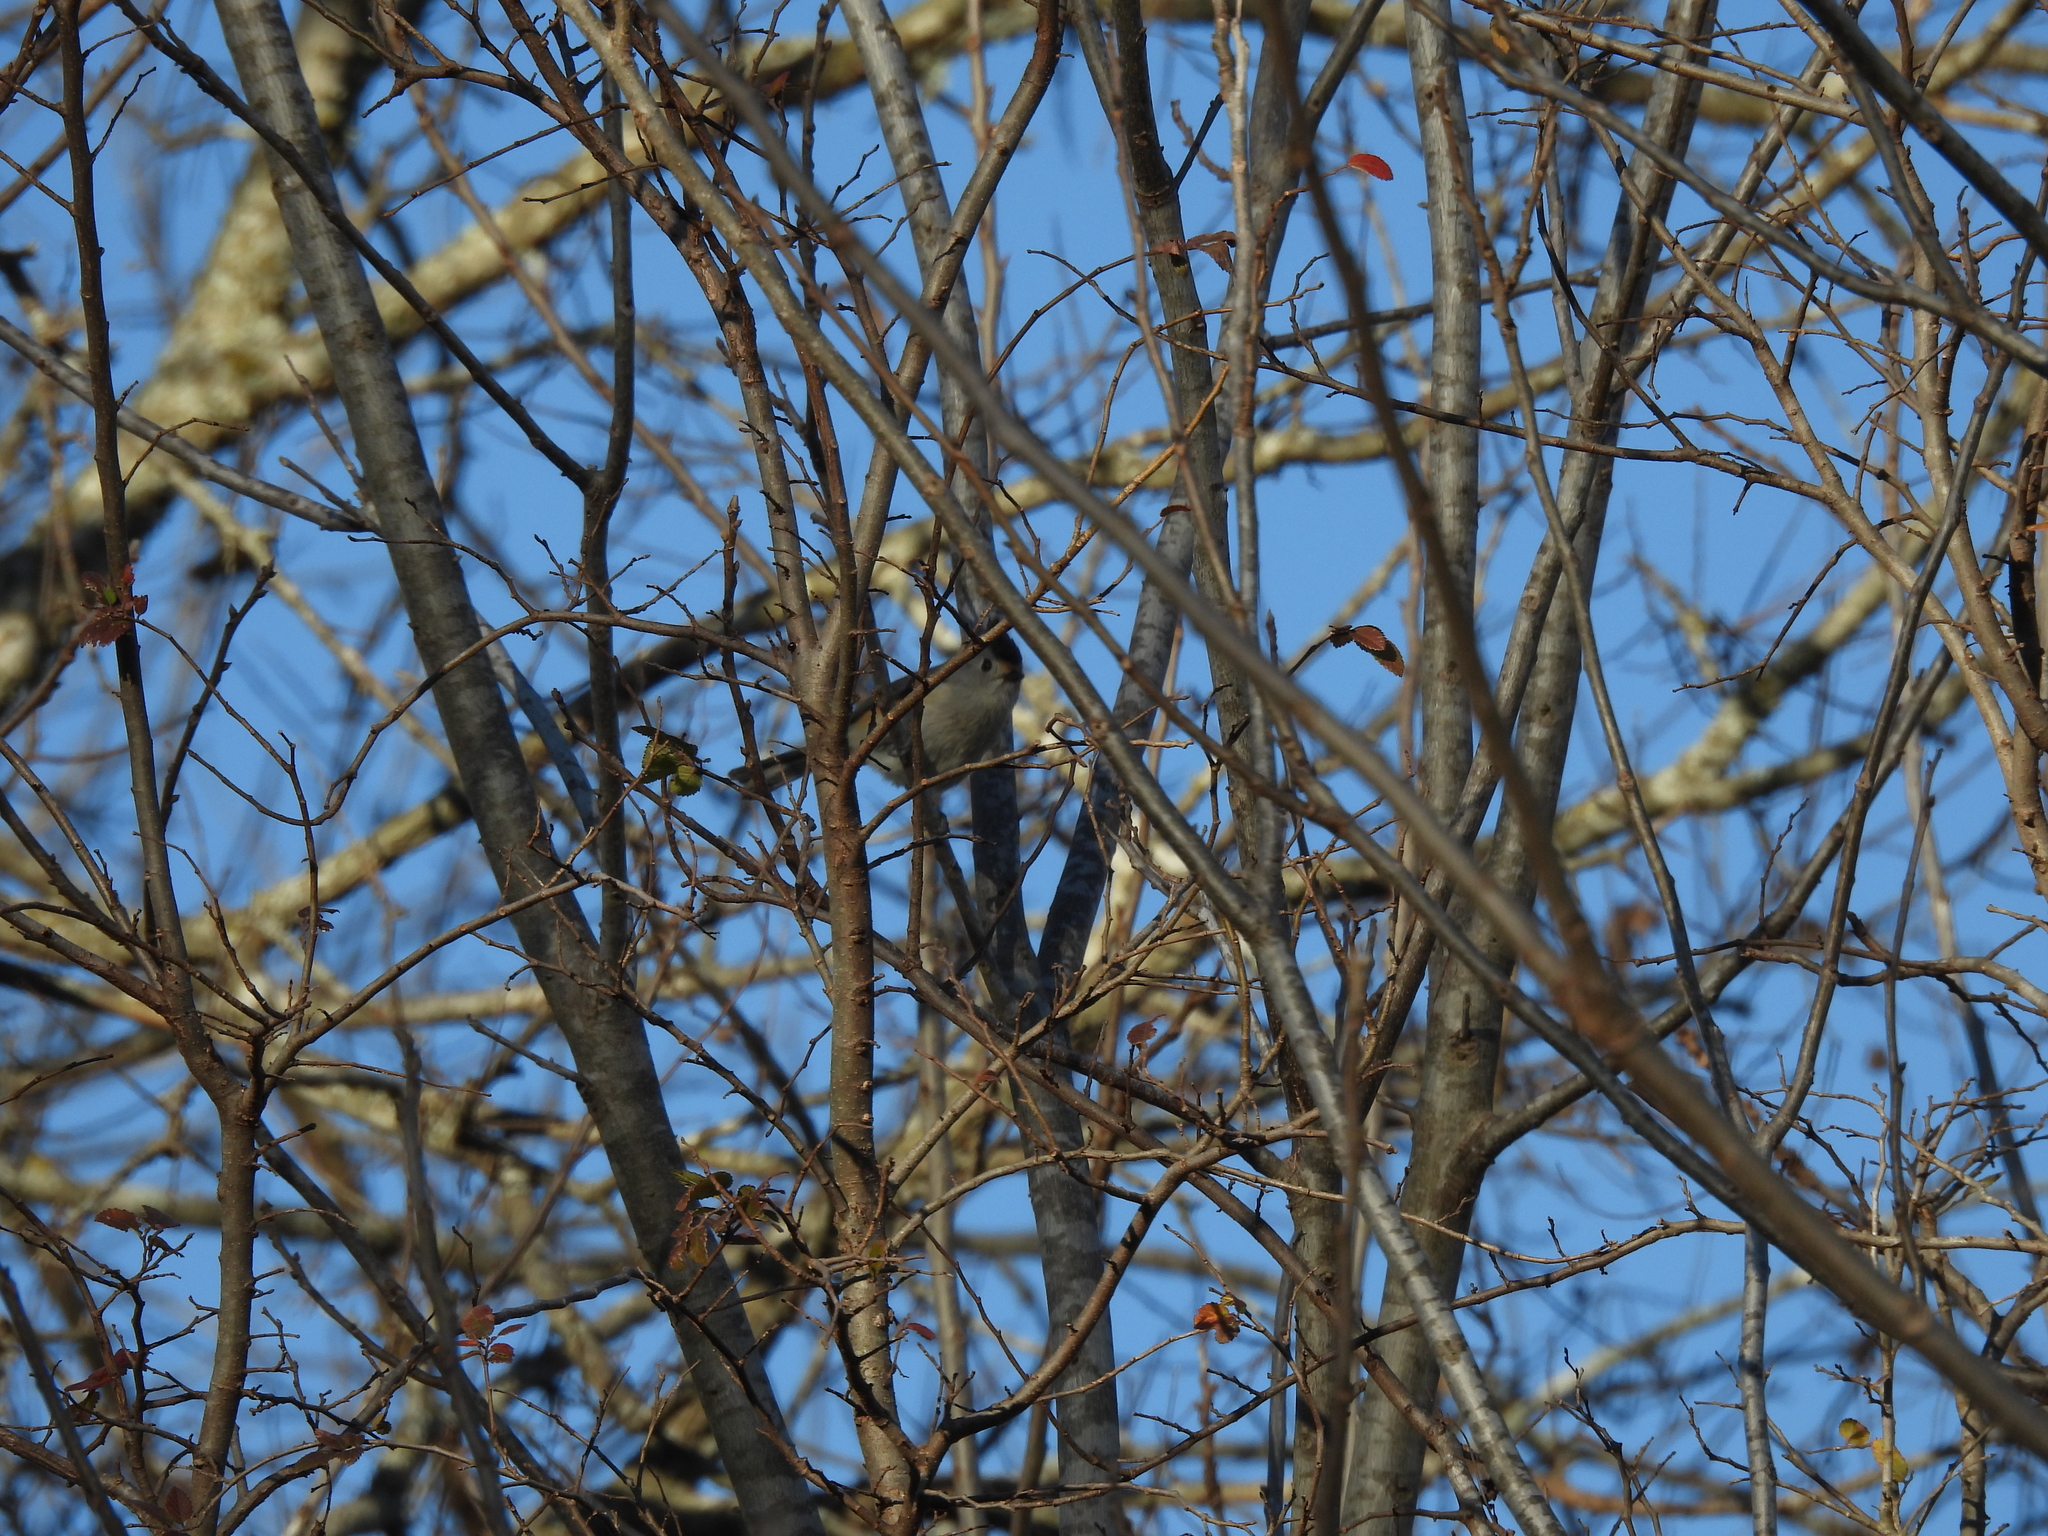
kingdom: Animalia
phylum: Chordata
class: Aves
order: Passeriformes
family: Paridae
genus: Baeolophus
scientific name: Baeolophus atricristatus
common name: Black-crested titmouse
